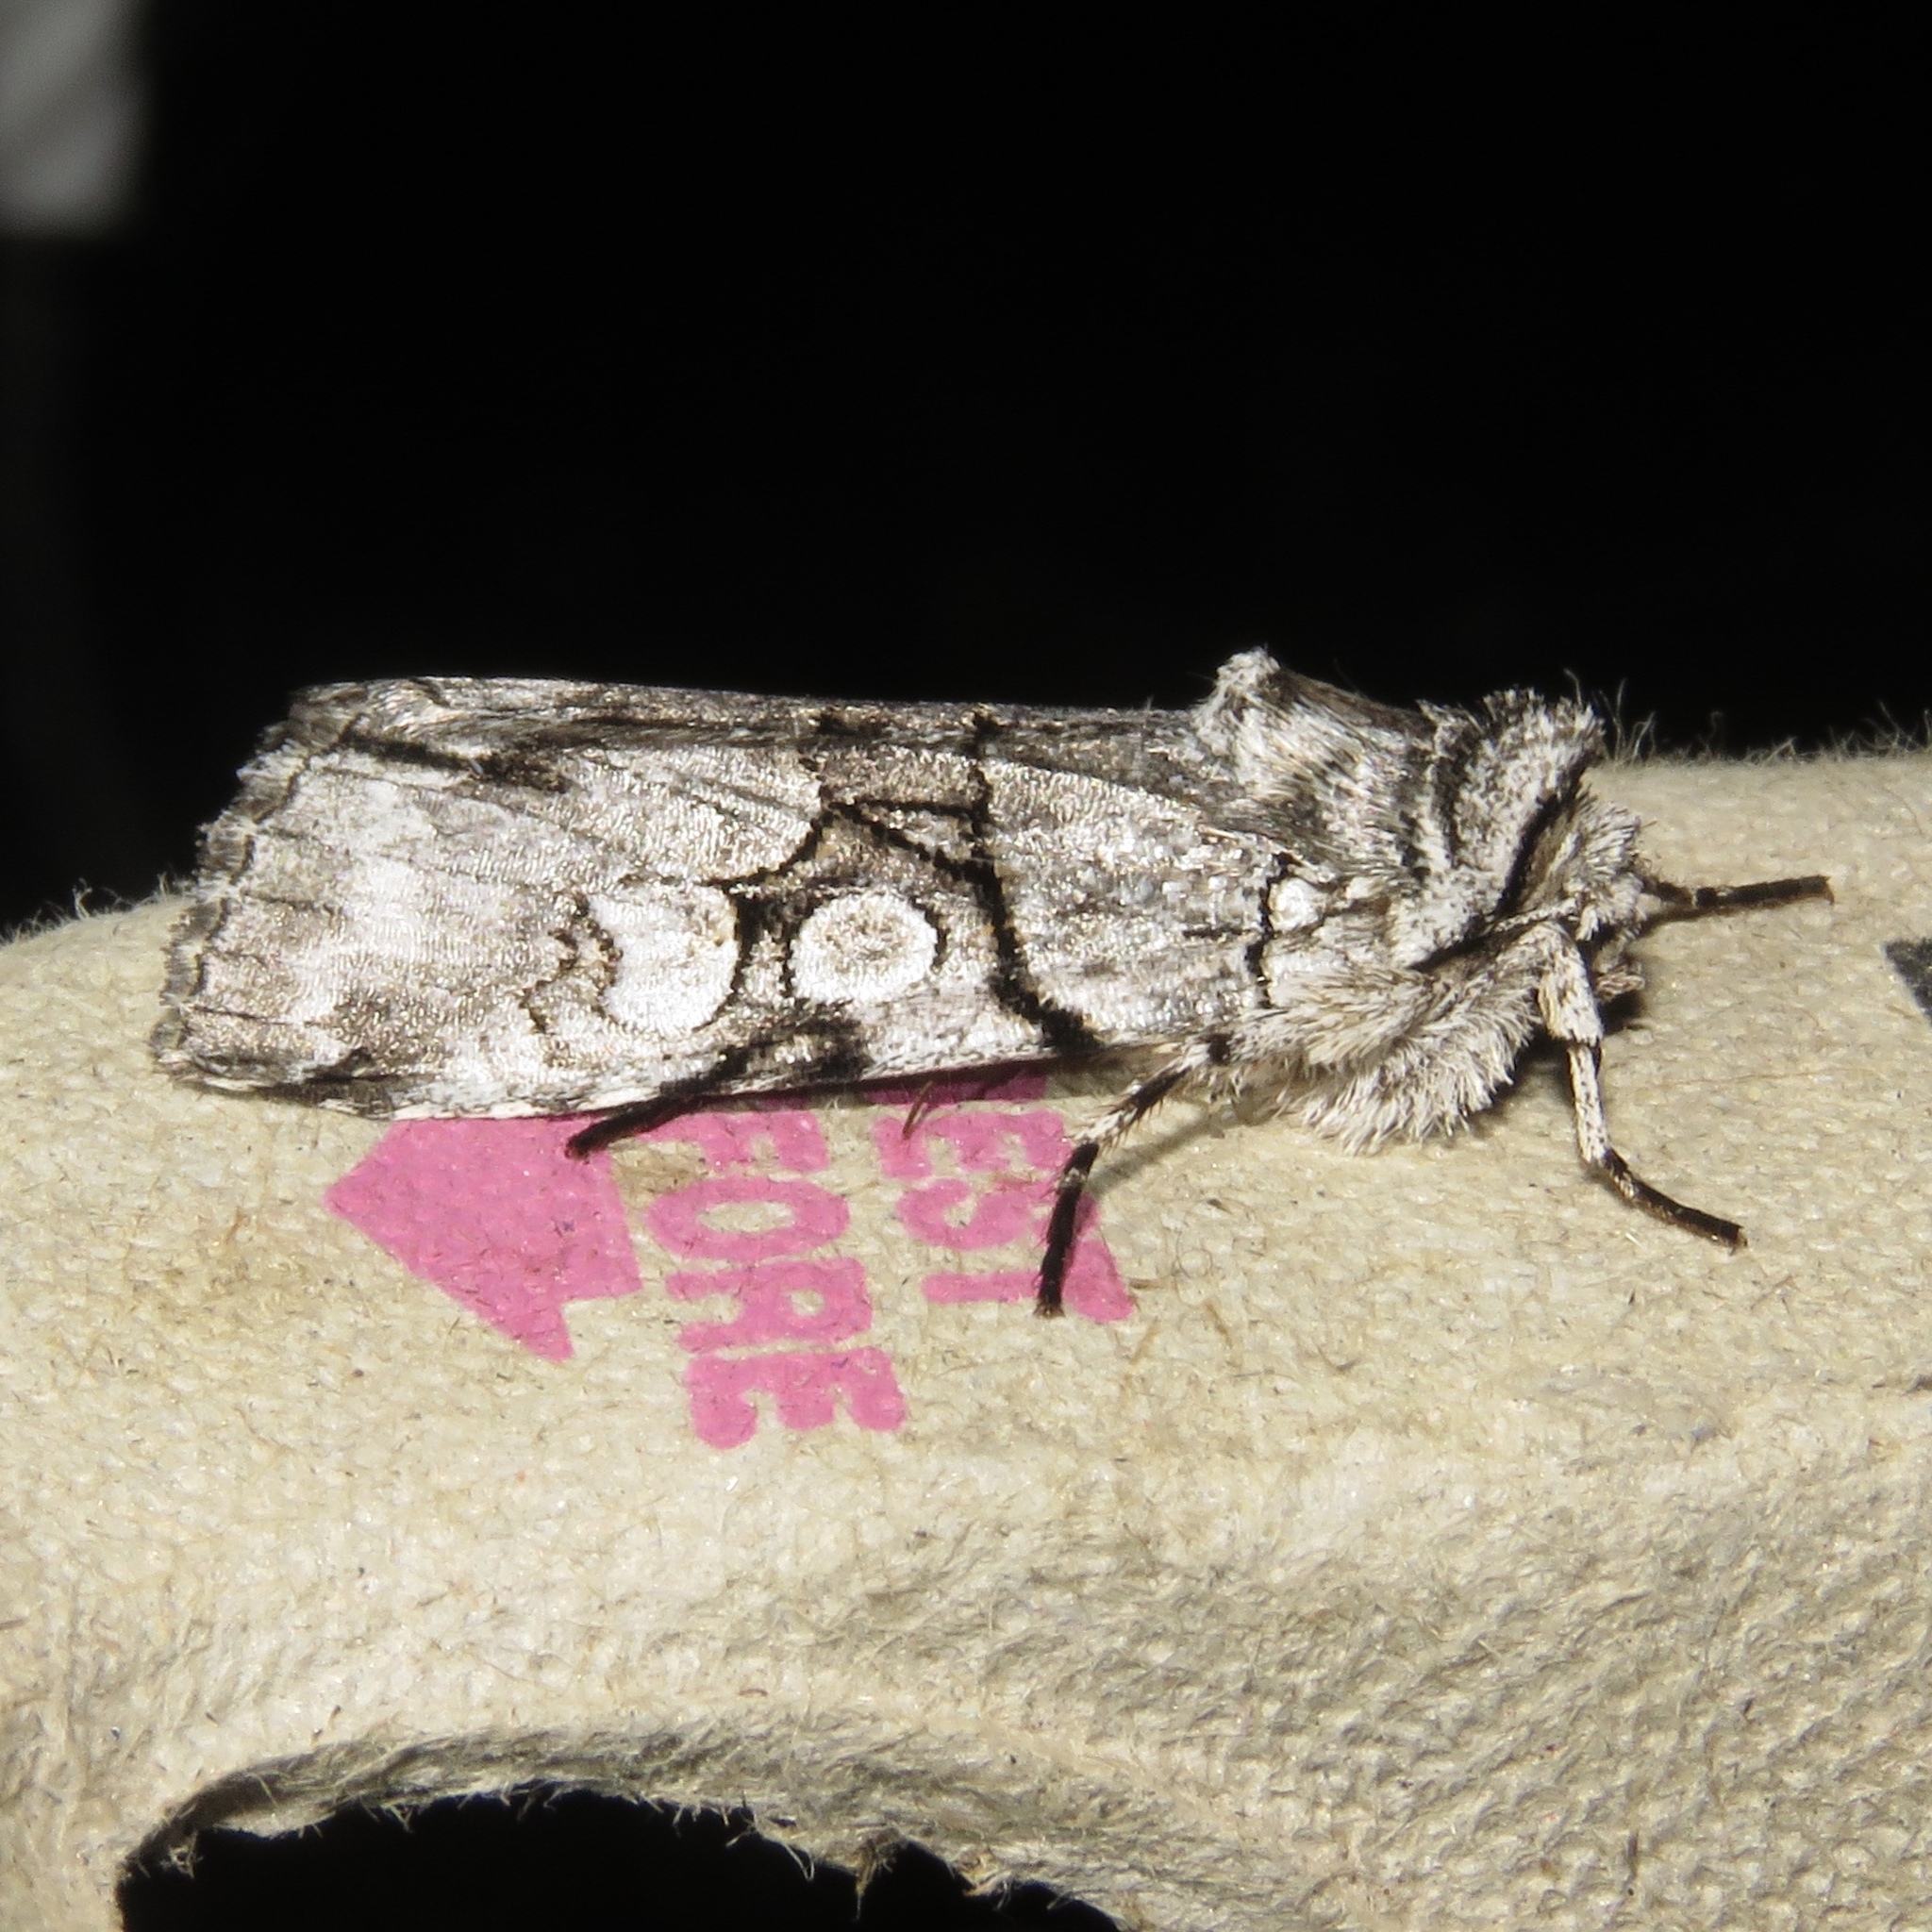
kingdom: Animalia
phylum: Arthropoda
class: Insecta
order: Lepidoptera
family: Noctuidae
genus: Sympistis
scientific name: Sympistis chionanthi
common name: Fringe-tree sallow
